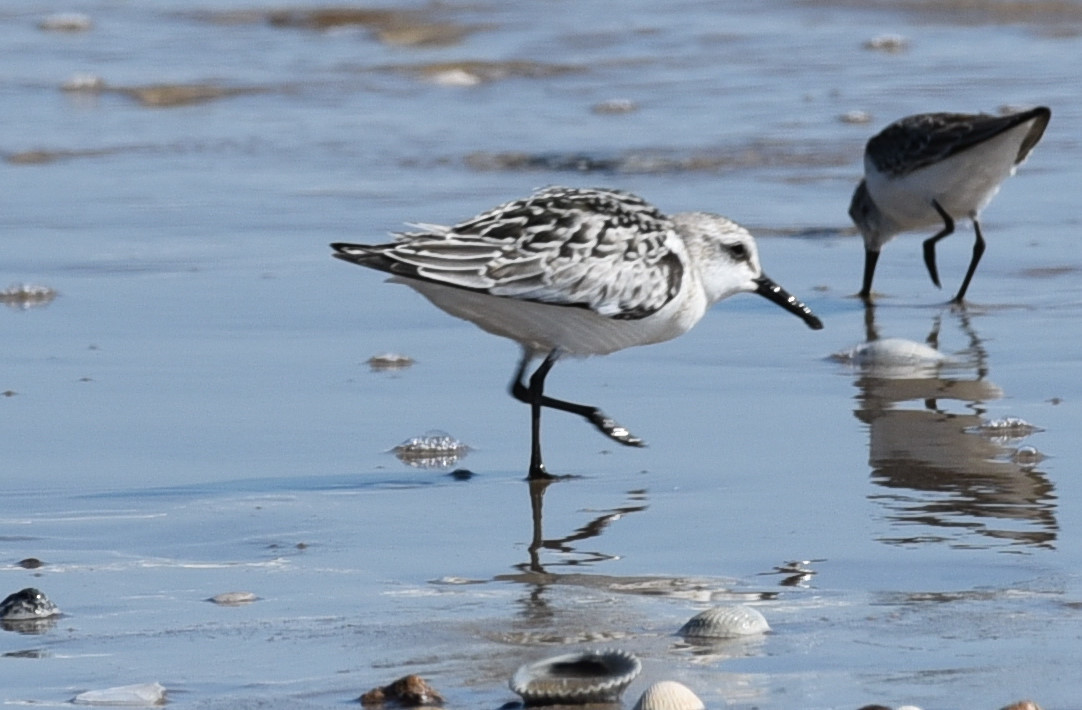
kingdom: Animalia
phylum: Chordata
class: Aves
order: Charadriiformes
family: Scolopacidae
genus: Calidris
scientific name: Calidris alba
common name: Sanderling
